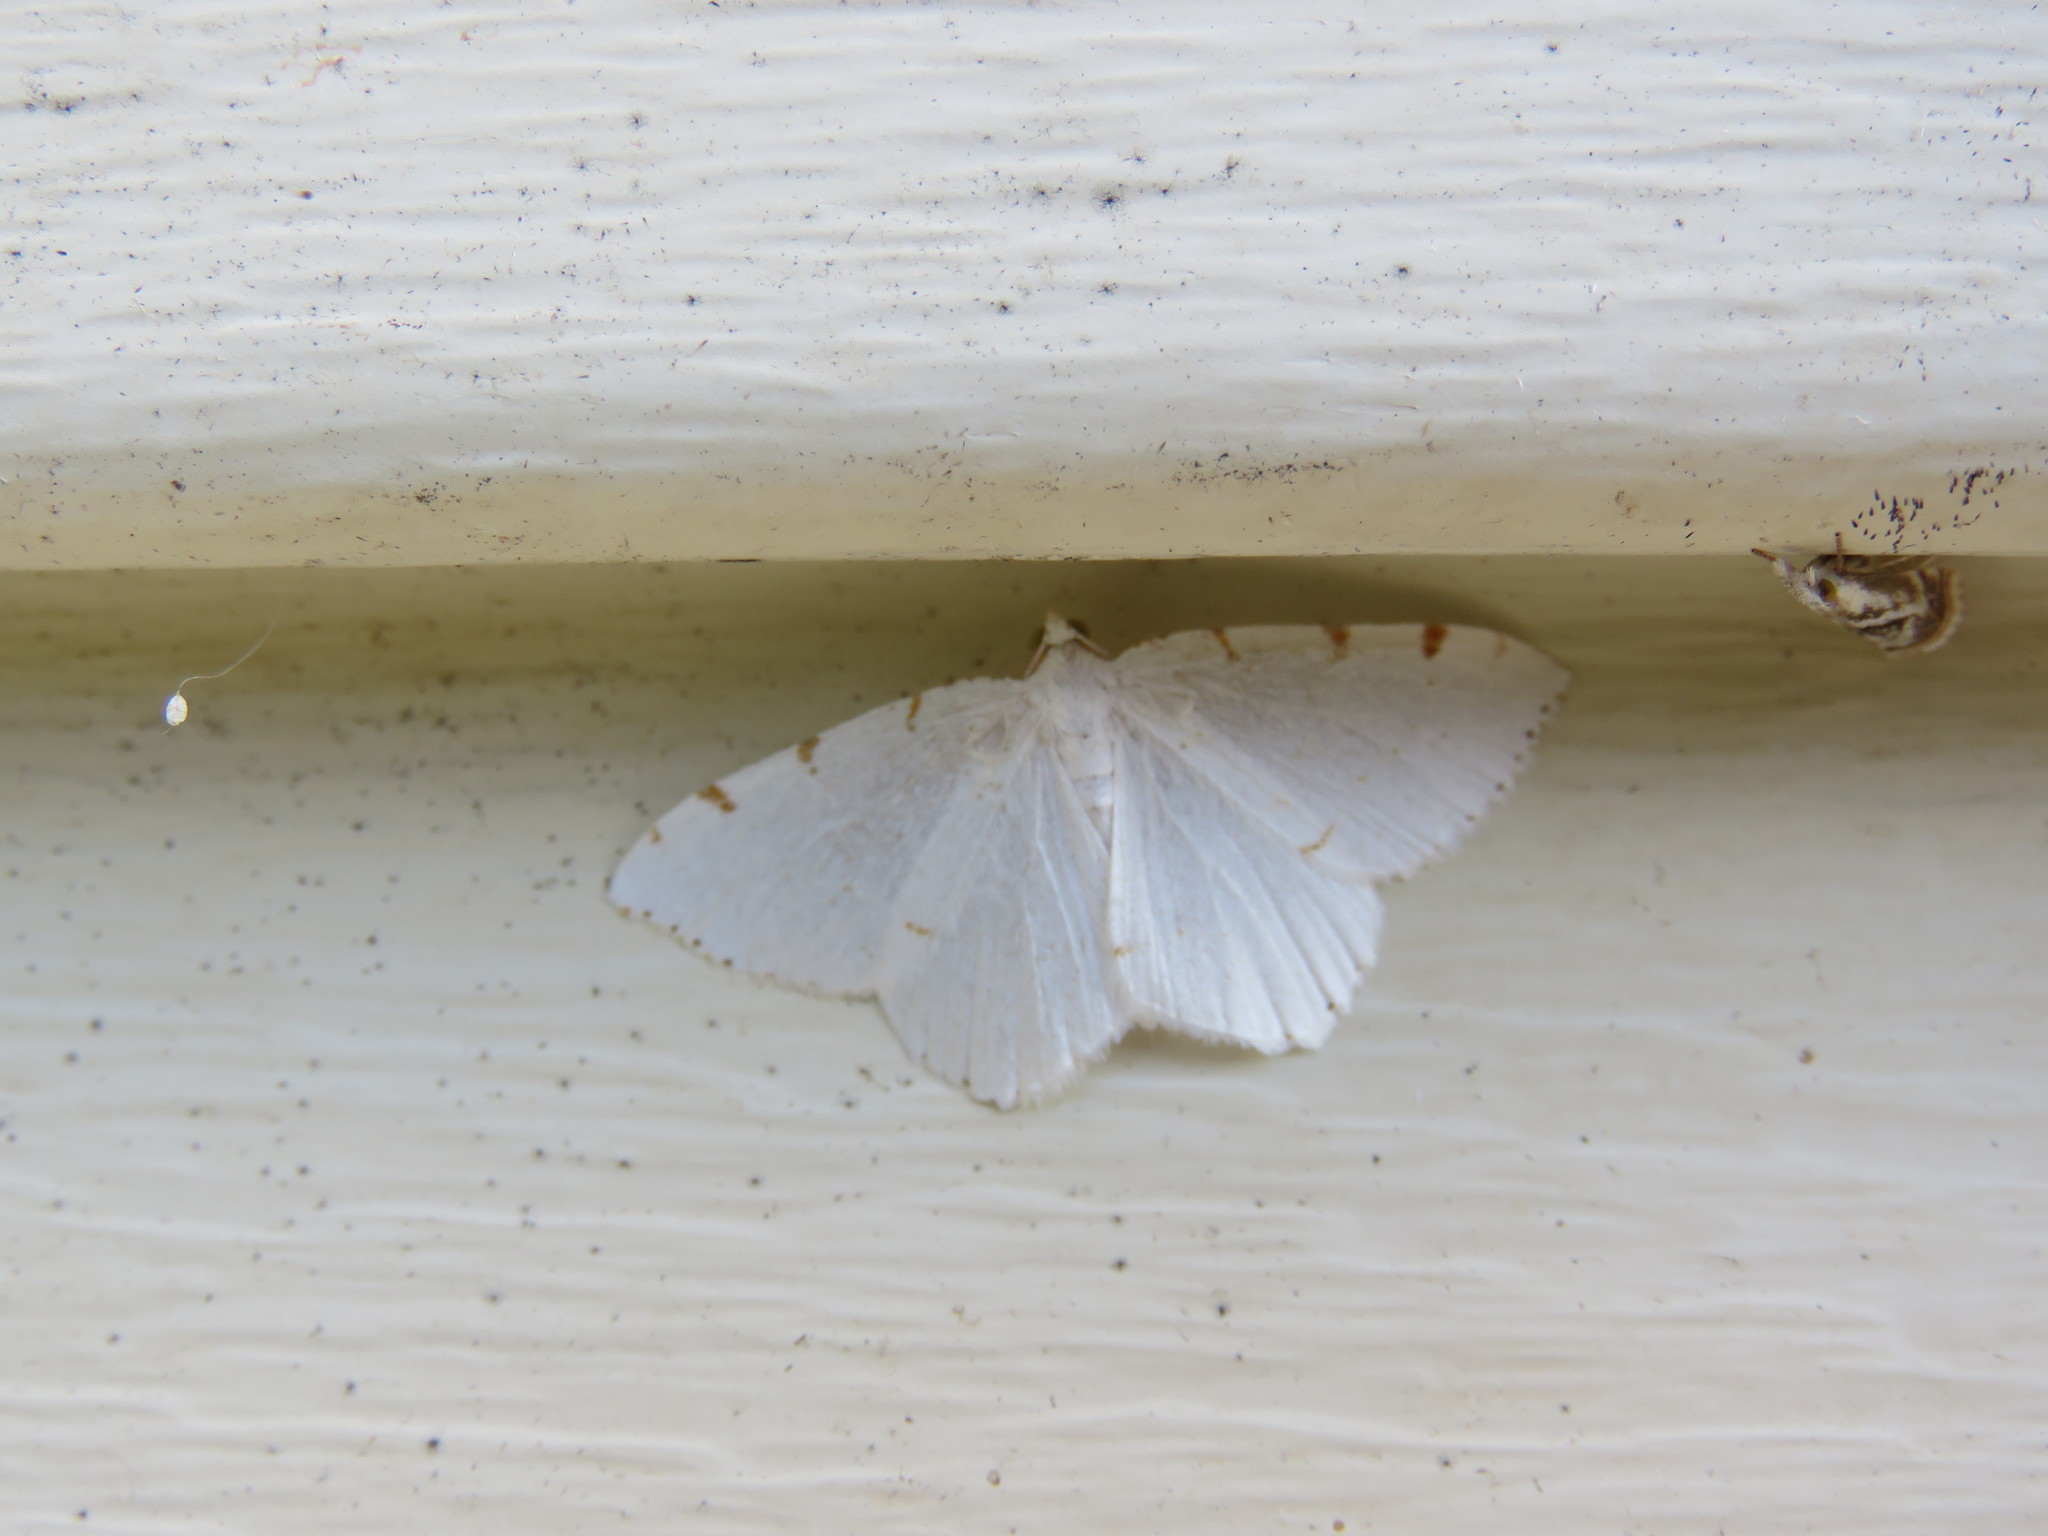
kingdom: Animalia
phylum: Arthropoda
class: Insecta
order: Lepidoptera
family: Geometridae
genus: Macaria
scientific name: Macaria pustularia
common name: Lesser maple spanworm moth
